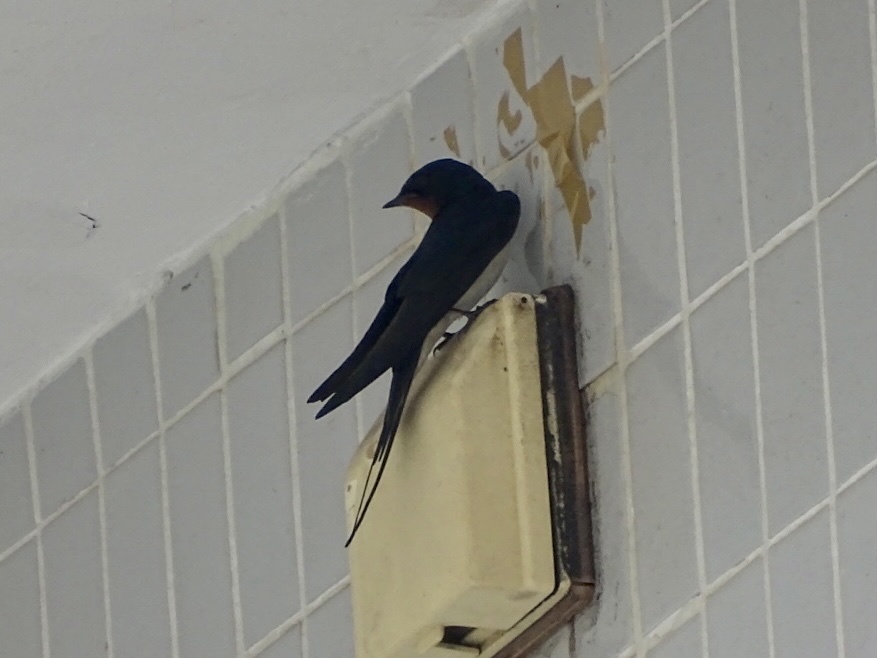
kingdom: Animalia
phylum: Chordata
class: Aves
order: Passeriformes
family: Hirundinidae
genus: Hirundo
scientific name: Hirundo rustica
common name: Barn swallow
